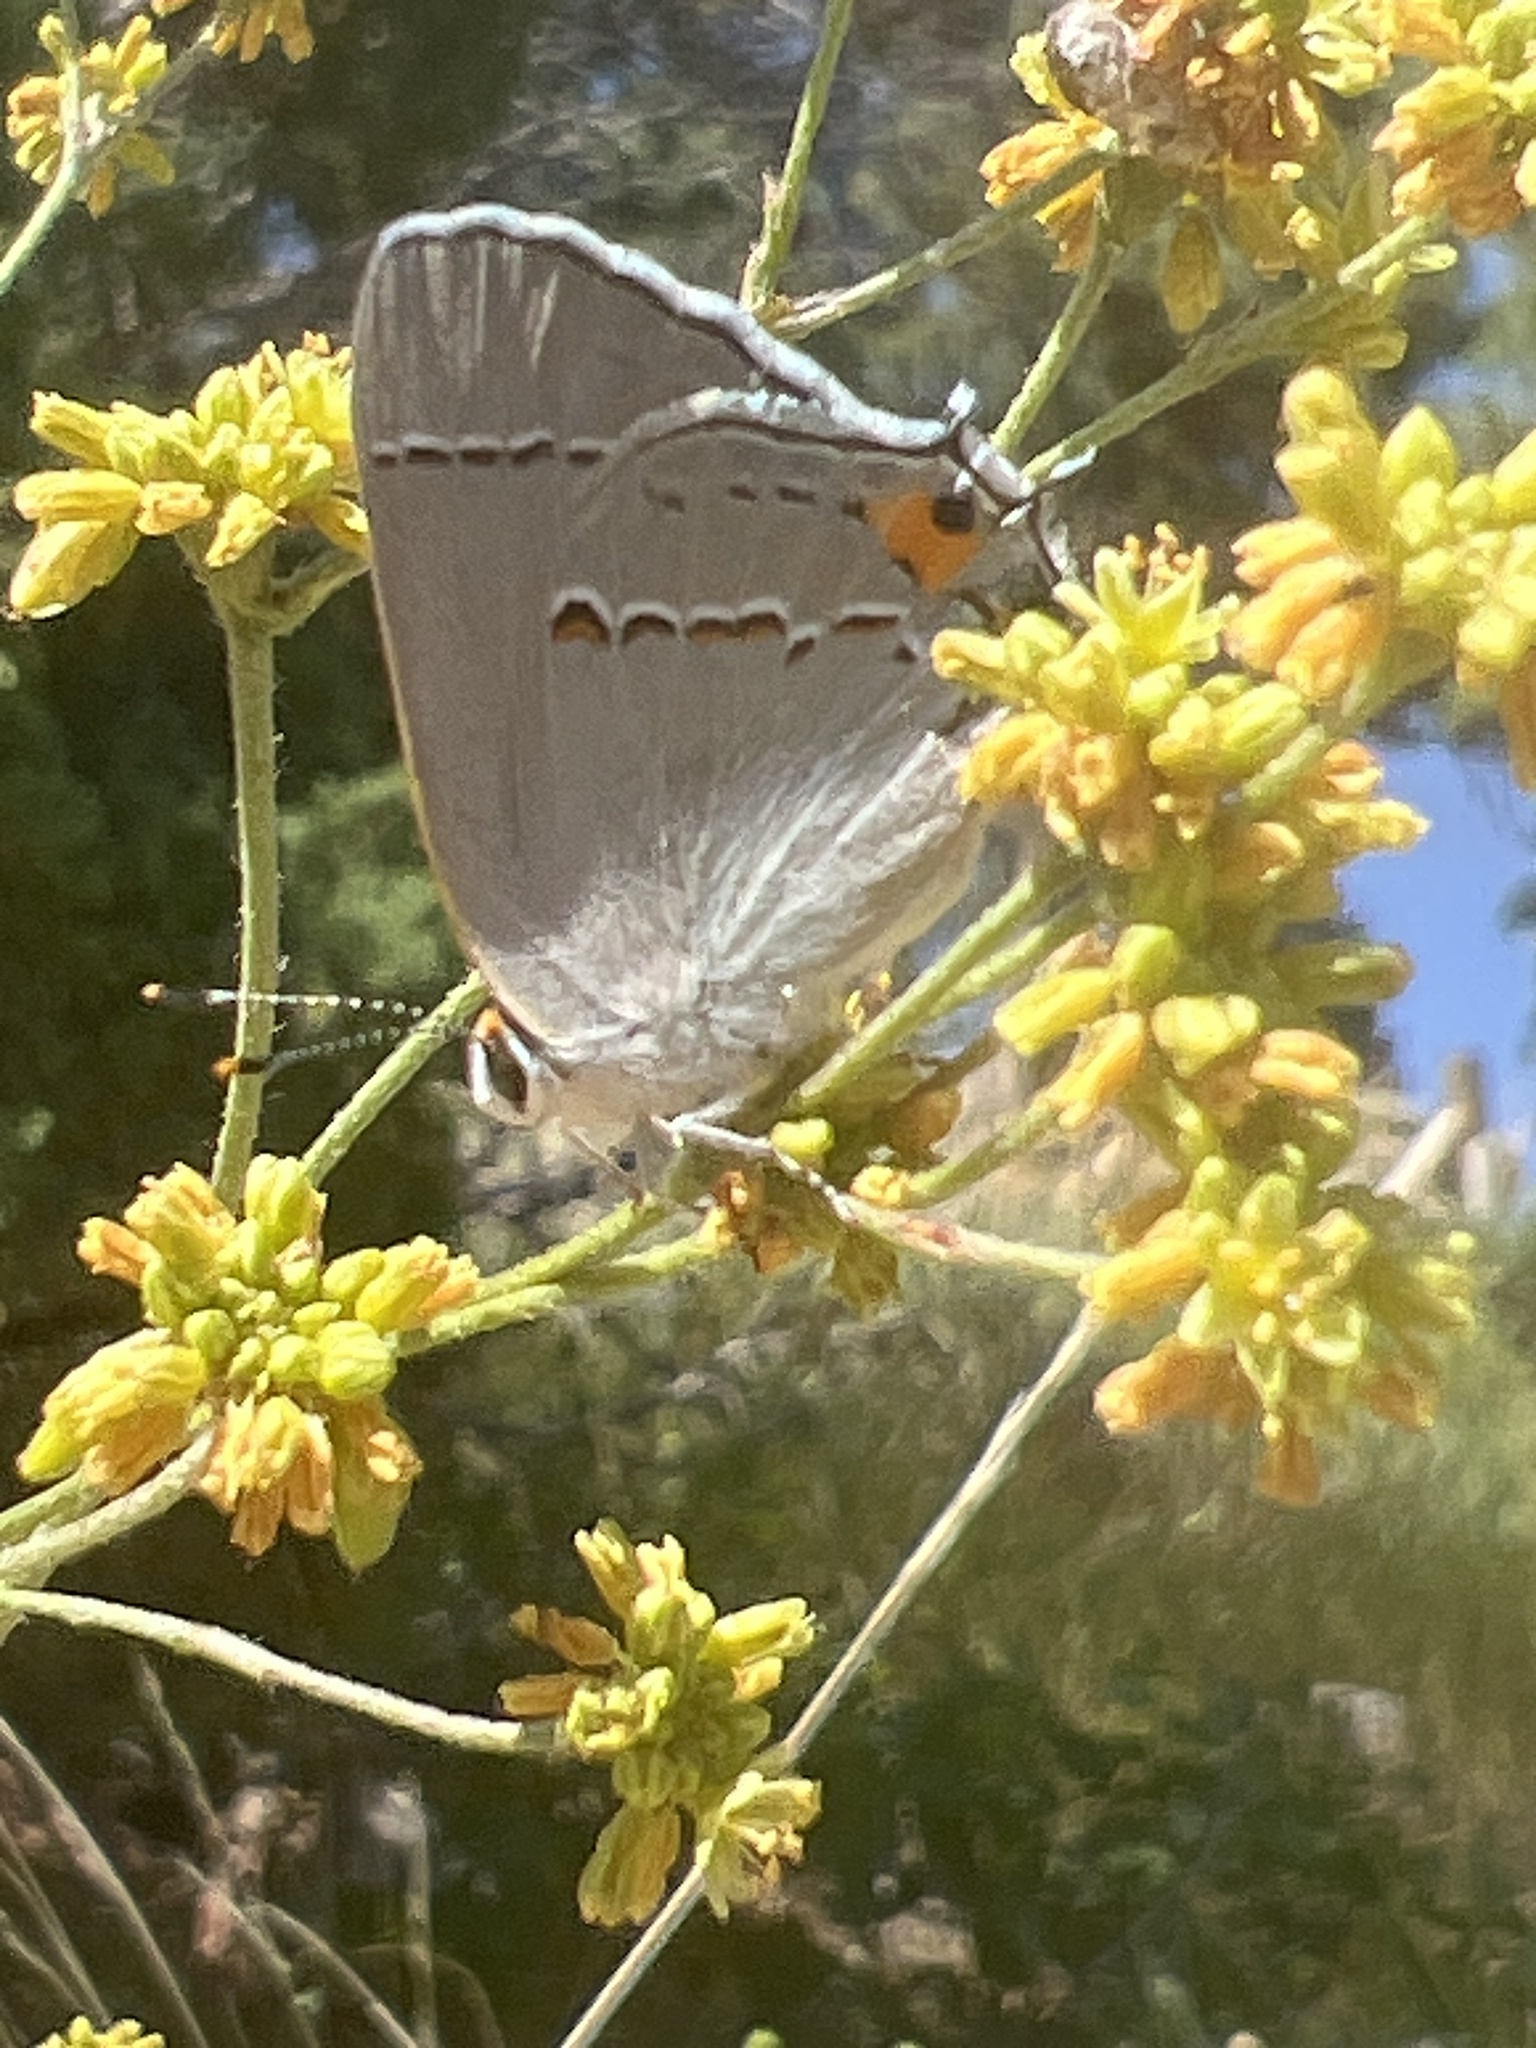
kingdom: Animalia
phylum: Arthropoda
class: Insecta
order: Lepidoptera
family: Lycaenidae
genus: Strymon
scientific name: Strymon melinus
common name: Gray hairstreak
